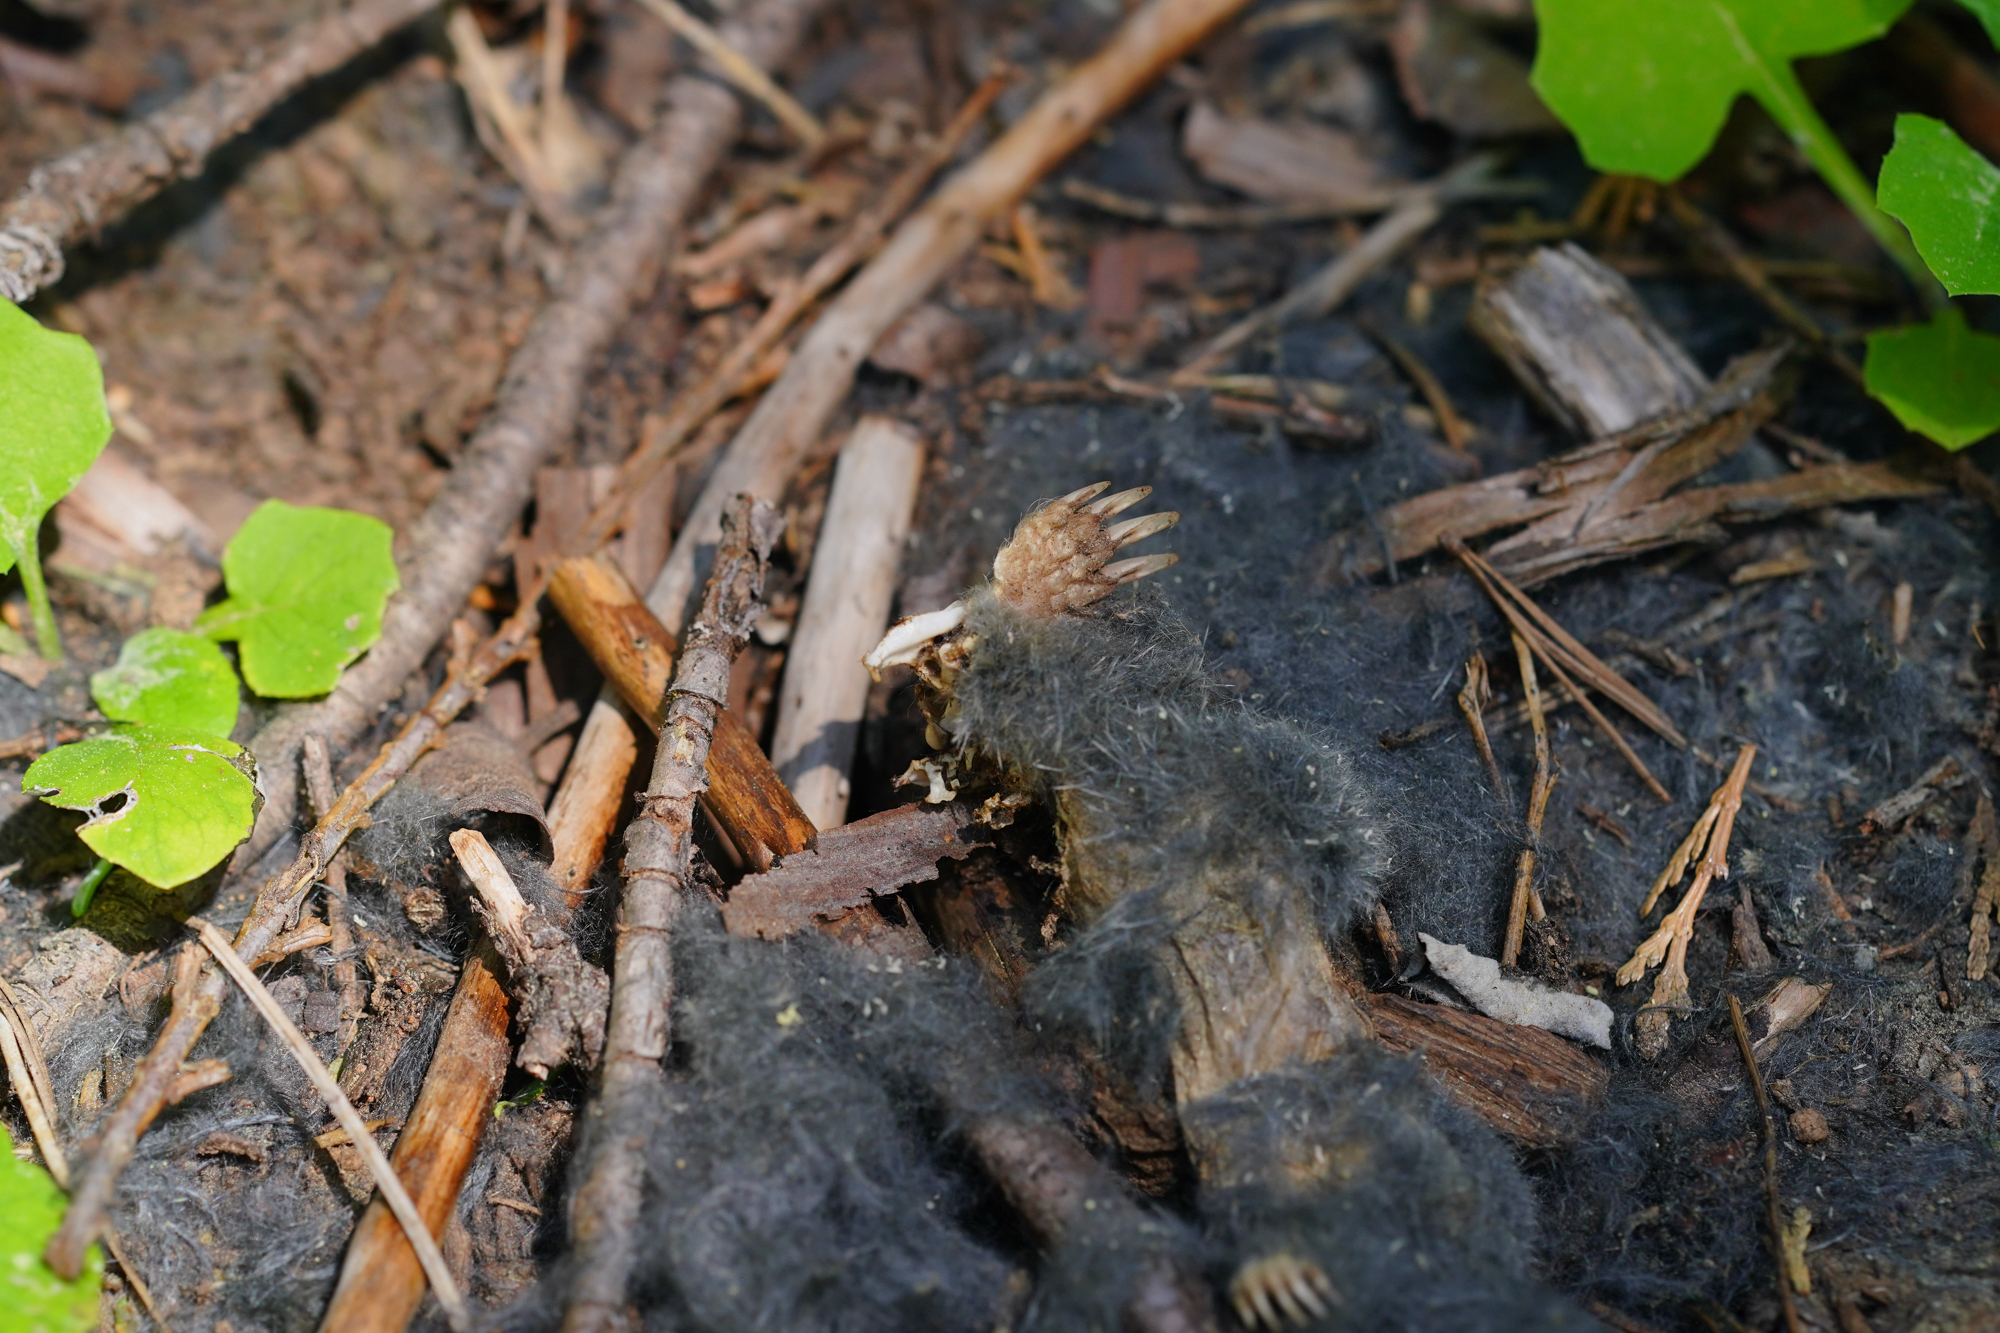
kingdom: Animalia
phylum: Chordata
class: Mammalia
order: Soricomorpha
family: Talpidae
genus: Scapanus
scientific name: Scapanus latimanus
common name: Broad-footed mole
